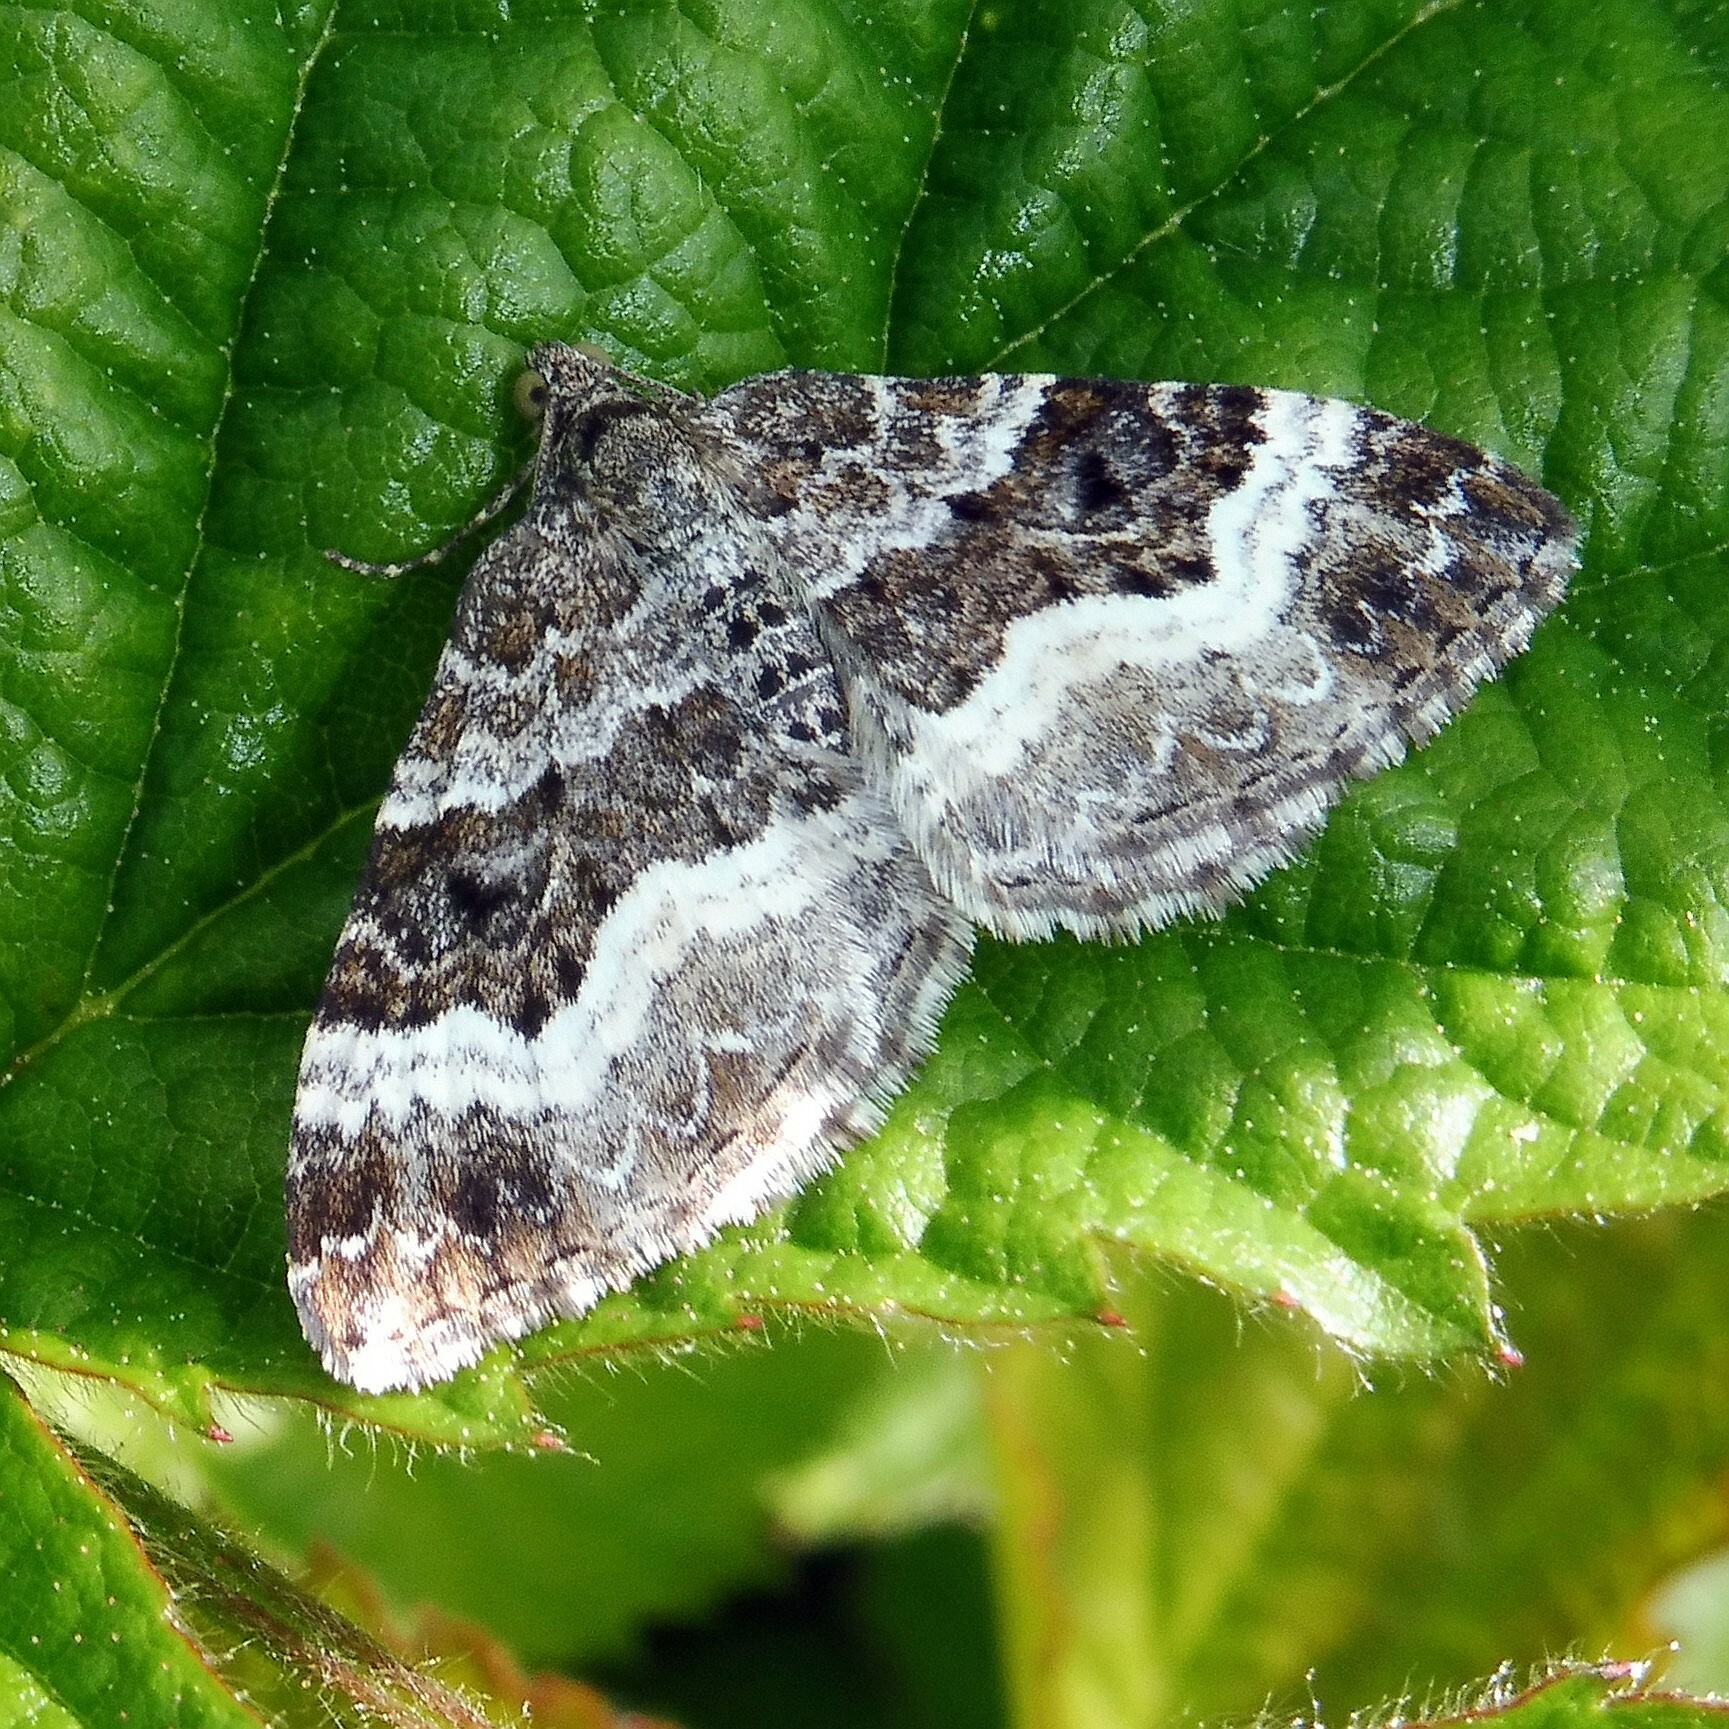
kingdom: Animalia
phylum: Arthropoda
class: Insecta
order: Lepidoptera
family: Geometridae
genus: Epirrhoe
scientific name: Epirrhoe alternata
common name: Common carpet
